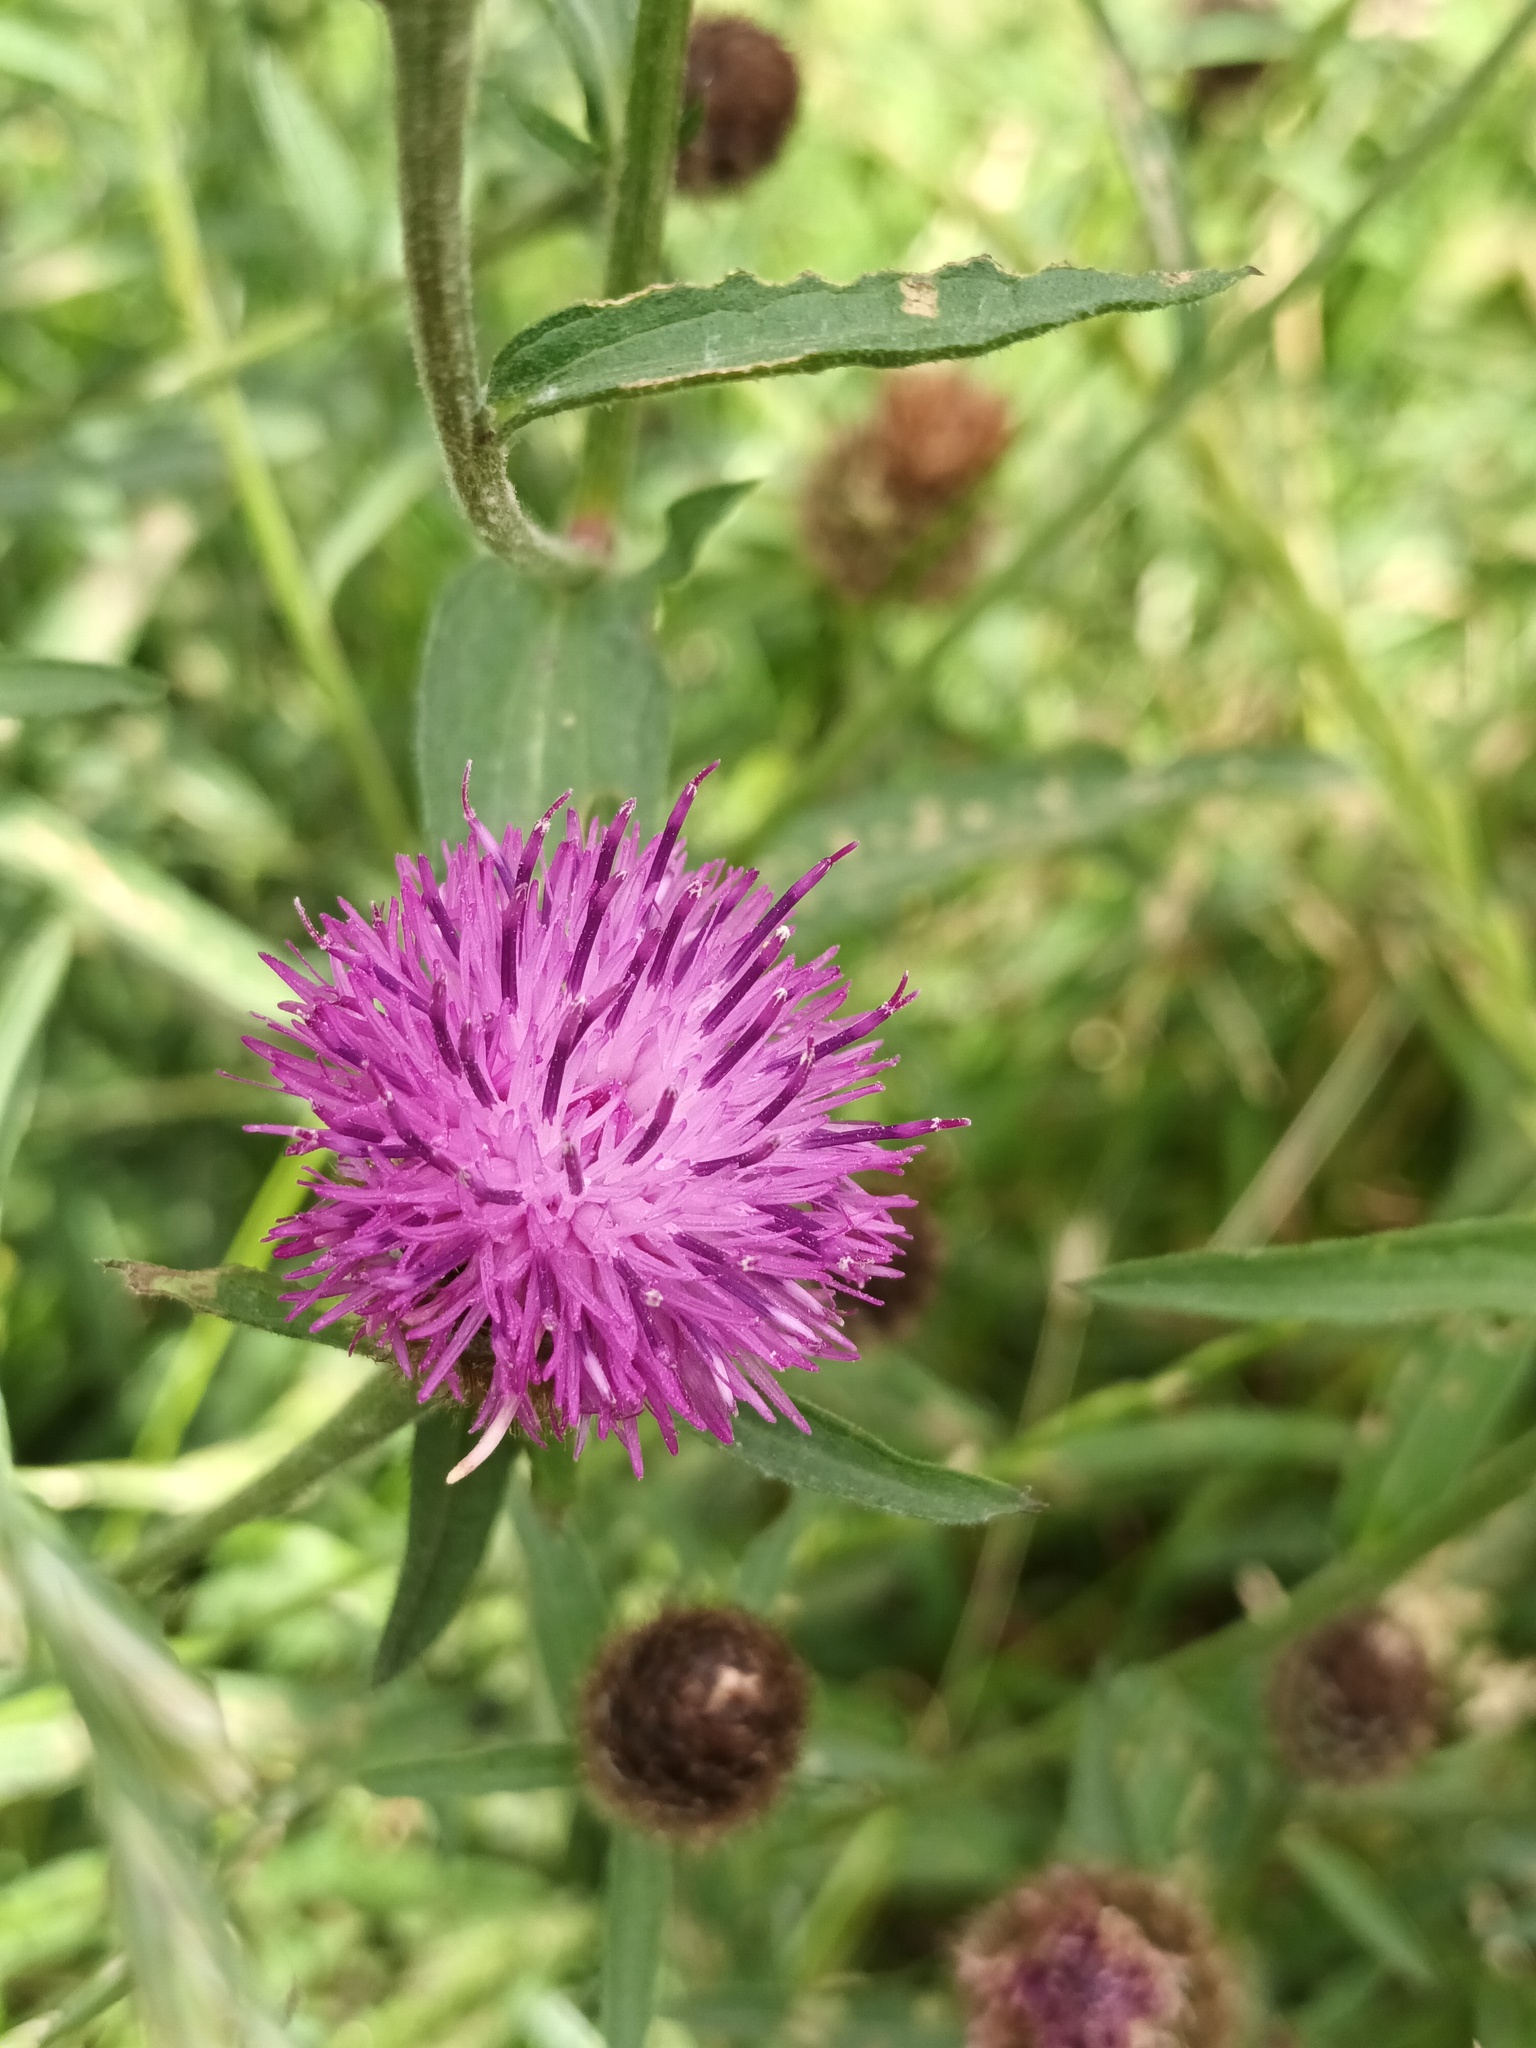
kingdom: Plantae
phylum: Tracheophyta
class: Magnoliopsida
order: Asterales
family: Asteraceae
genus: Centaurea
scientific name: Centaurea nigra
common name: Lesser knapweed
